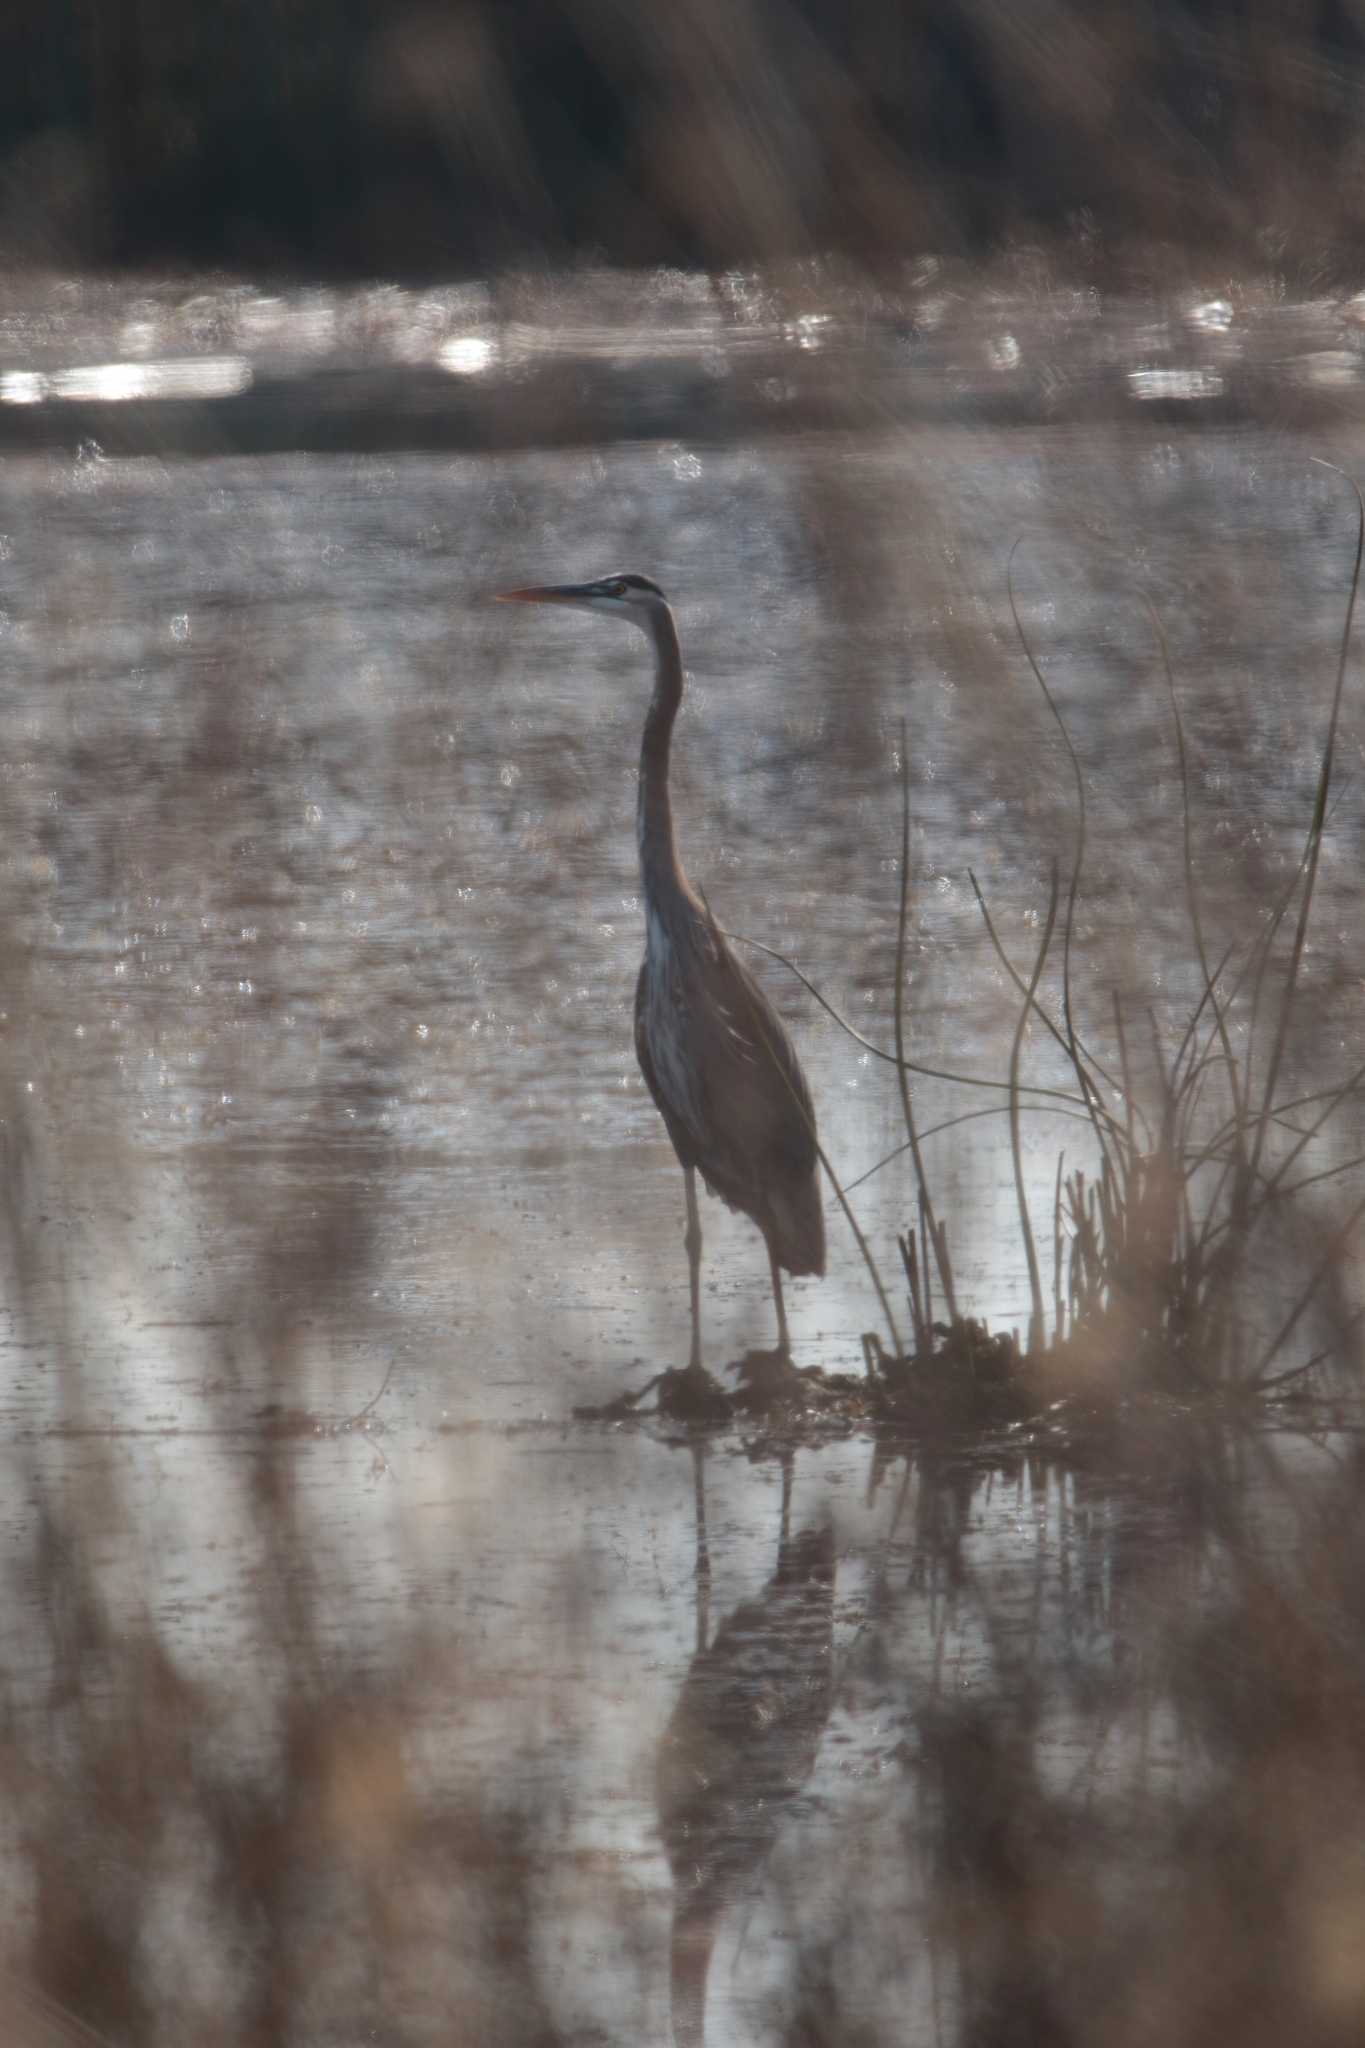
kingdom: Animalia
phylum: Chordata
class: Aves
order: Pelecaniformes
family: Ardeidae
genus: Ardea
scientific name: Ardea herodias
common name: Great blue heron
